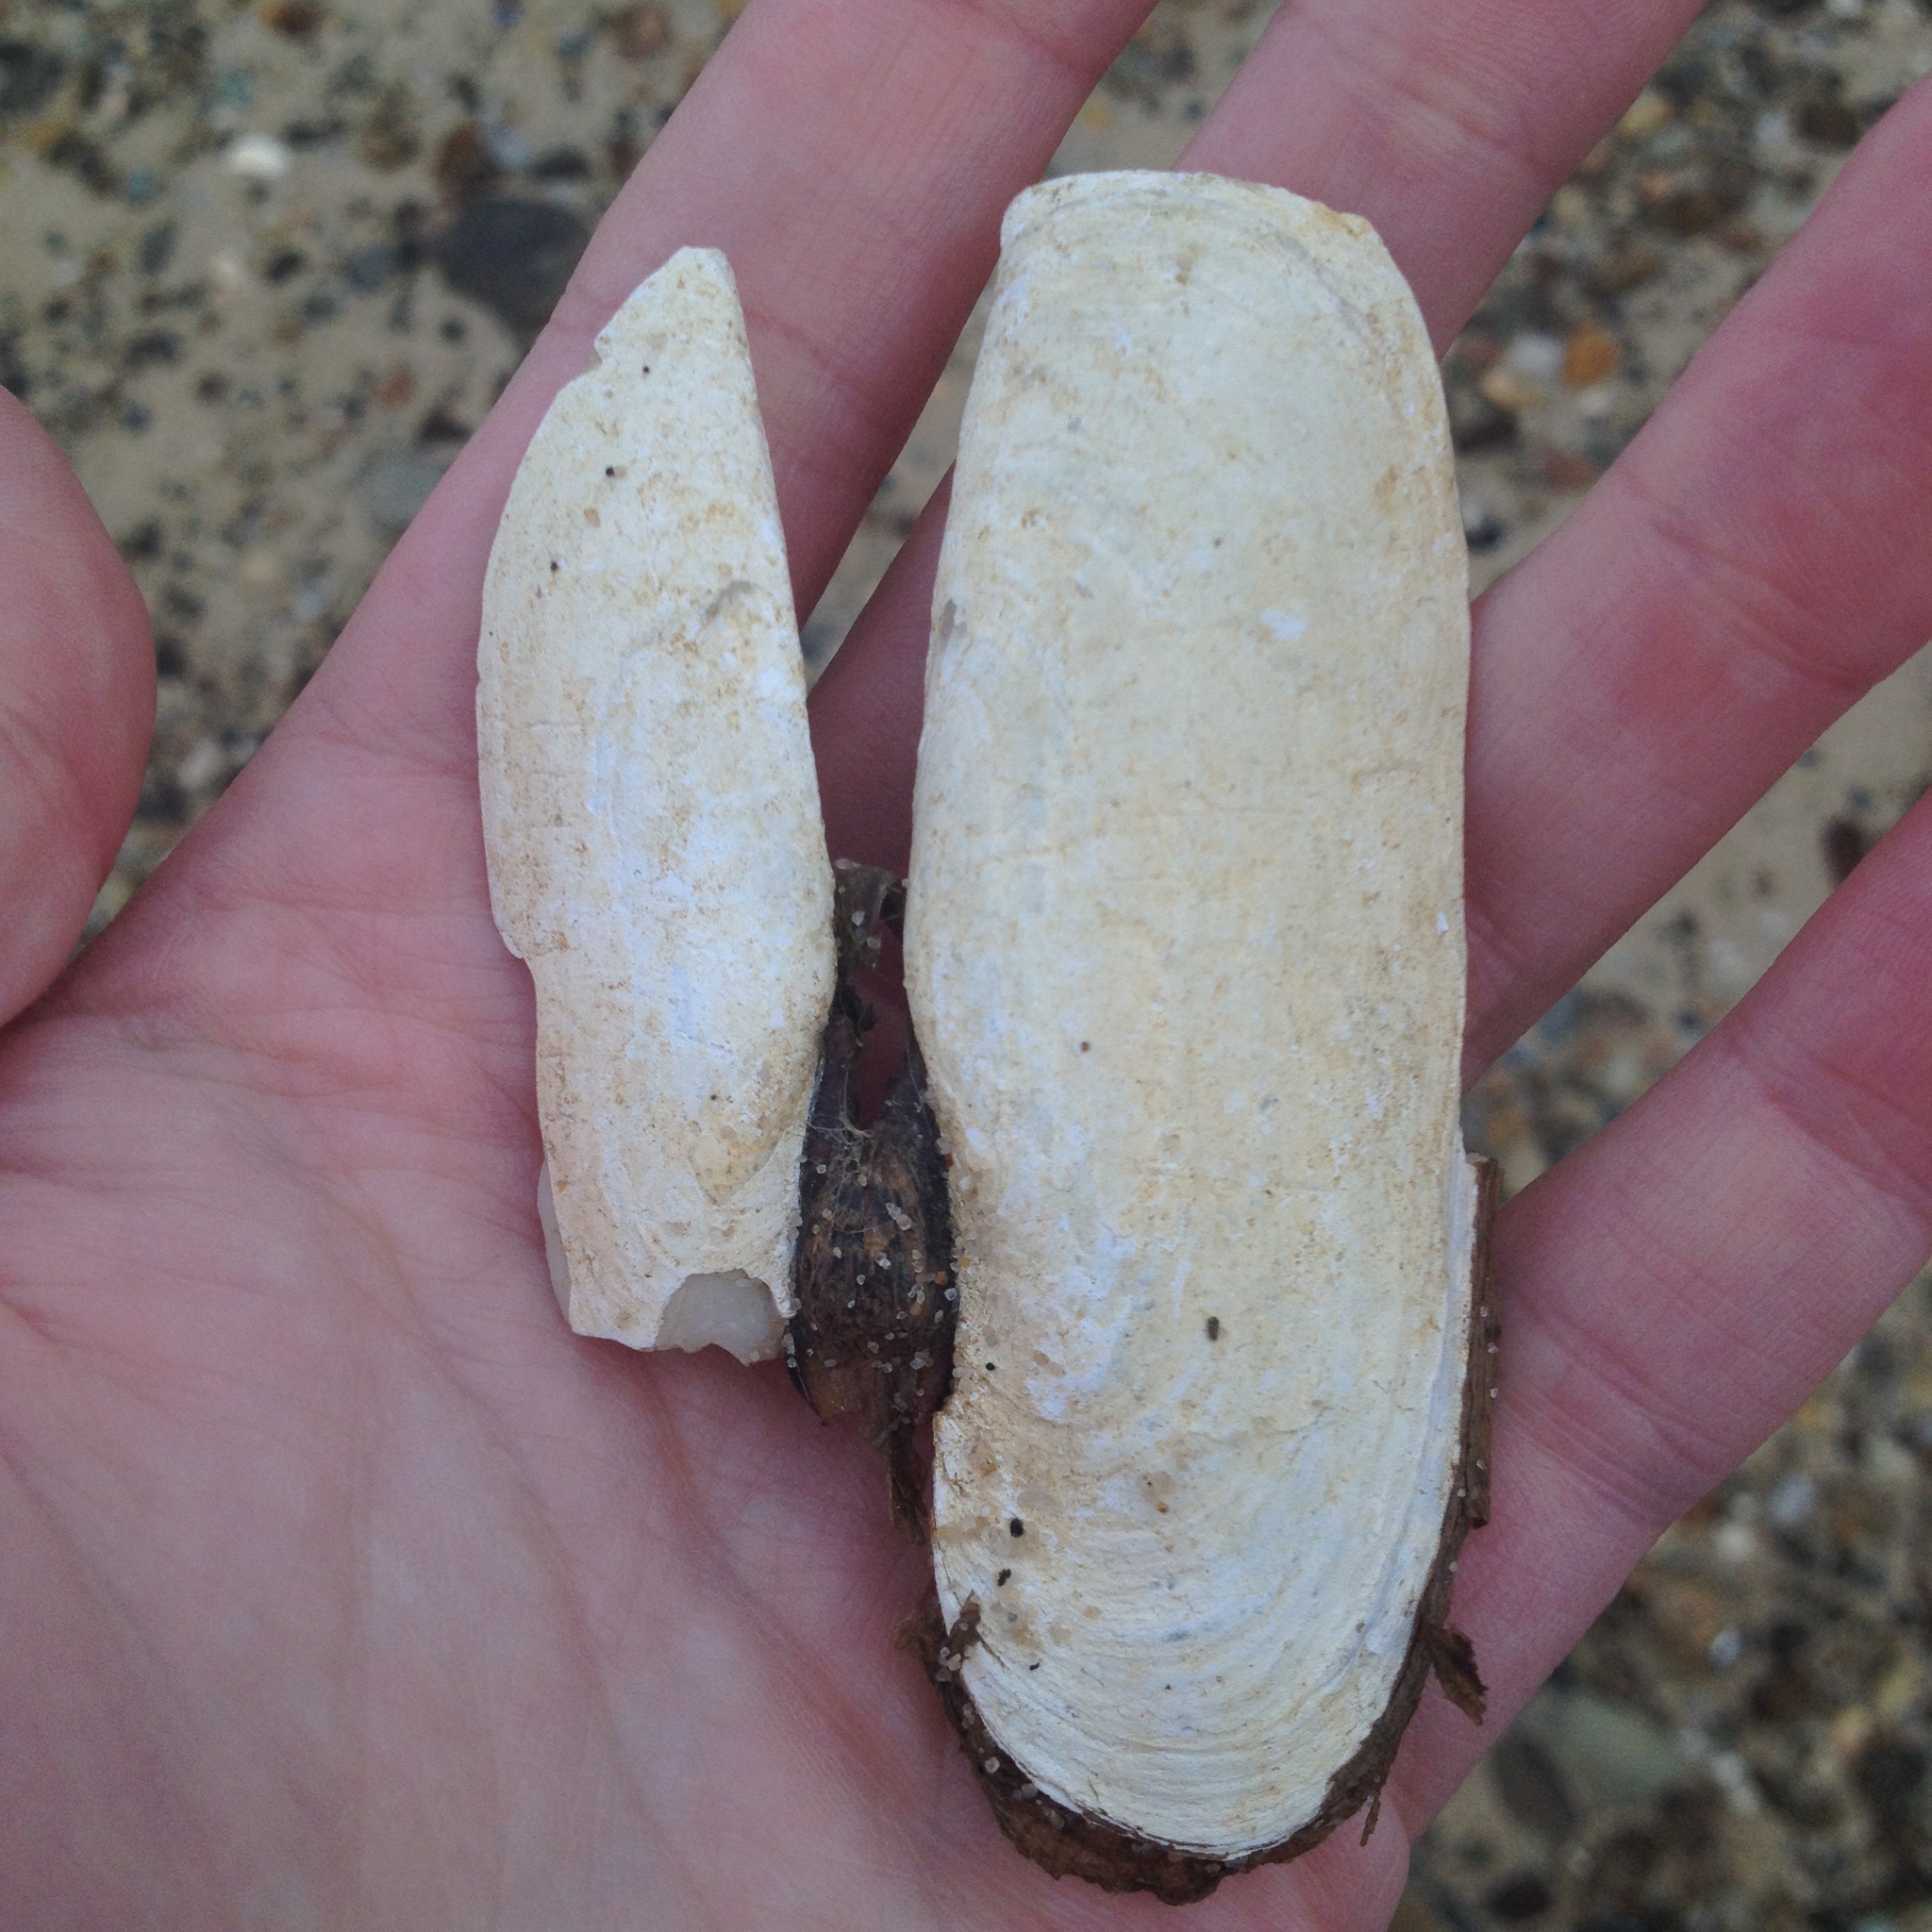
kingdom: Animalia
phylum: Mollusca
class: Bivalvia
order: Cardiida
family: Solecurtidae
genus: Tagelus
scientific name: Tagelus plebeius
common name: Stout tagelus
